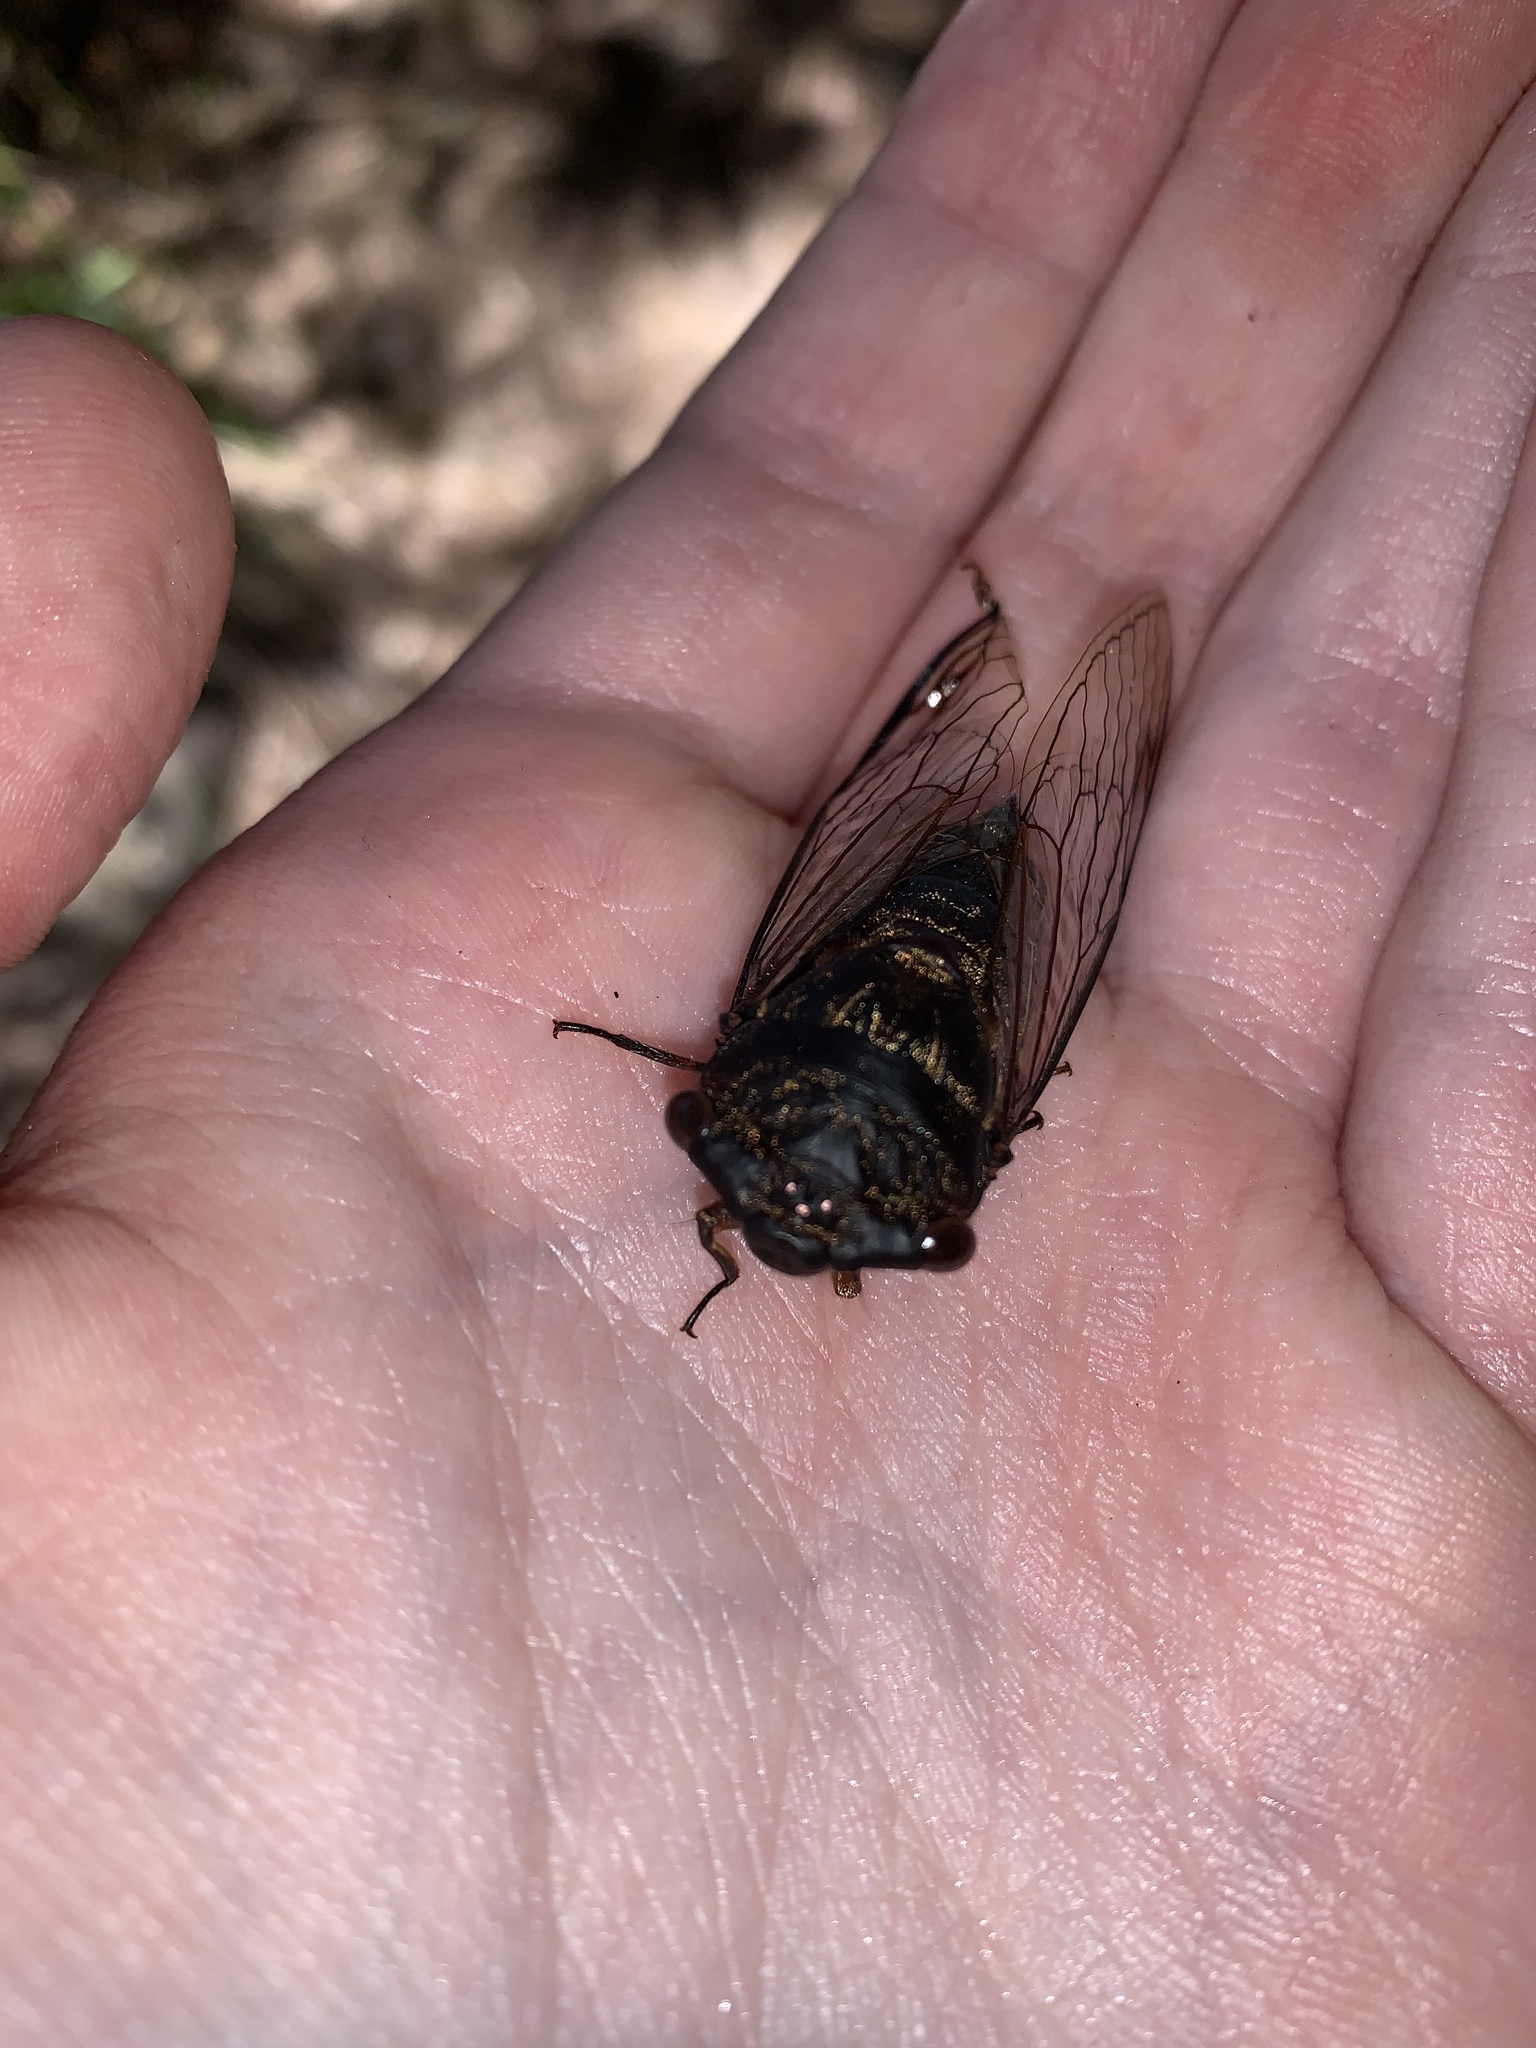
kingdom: Animalia
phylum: Arthropoda
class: Insecta
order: Hemiptera
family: Cicadidae
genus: Psaltoda
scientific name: Psaltoda plaga
